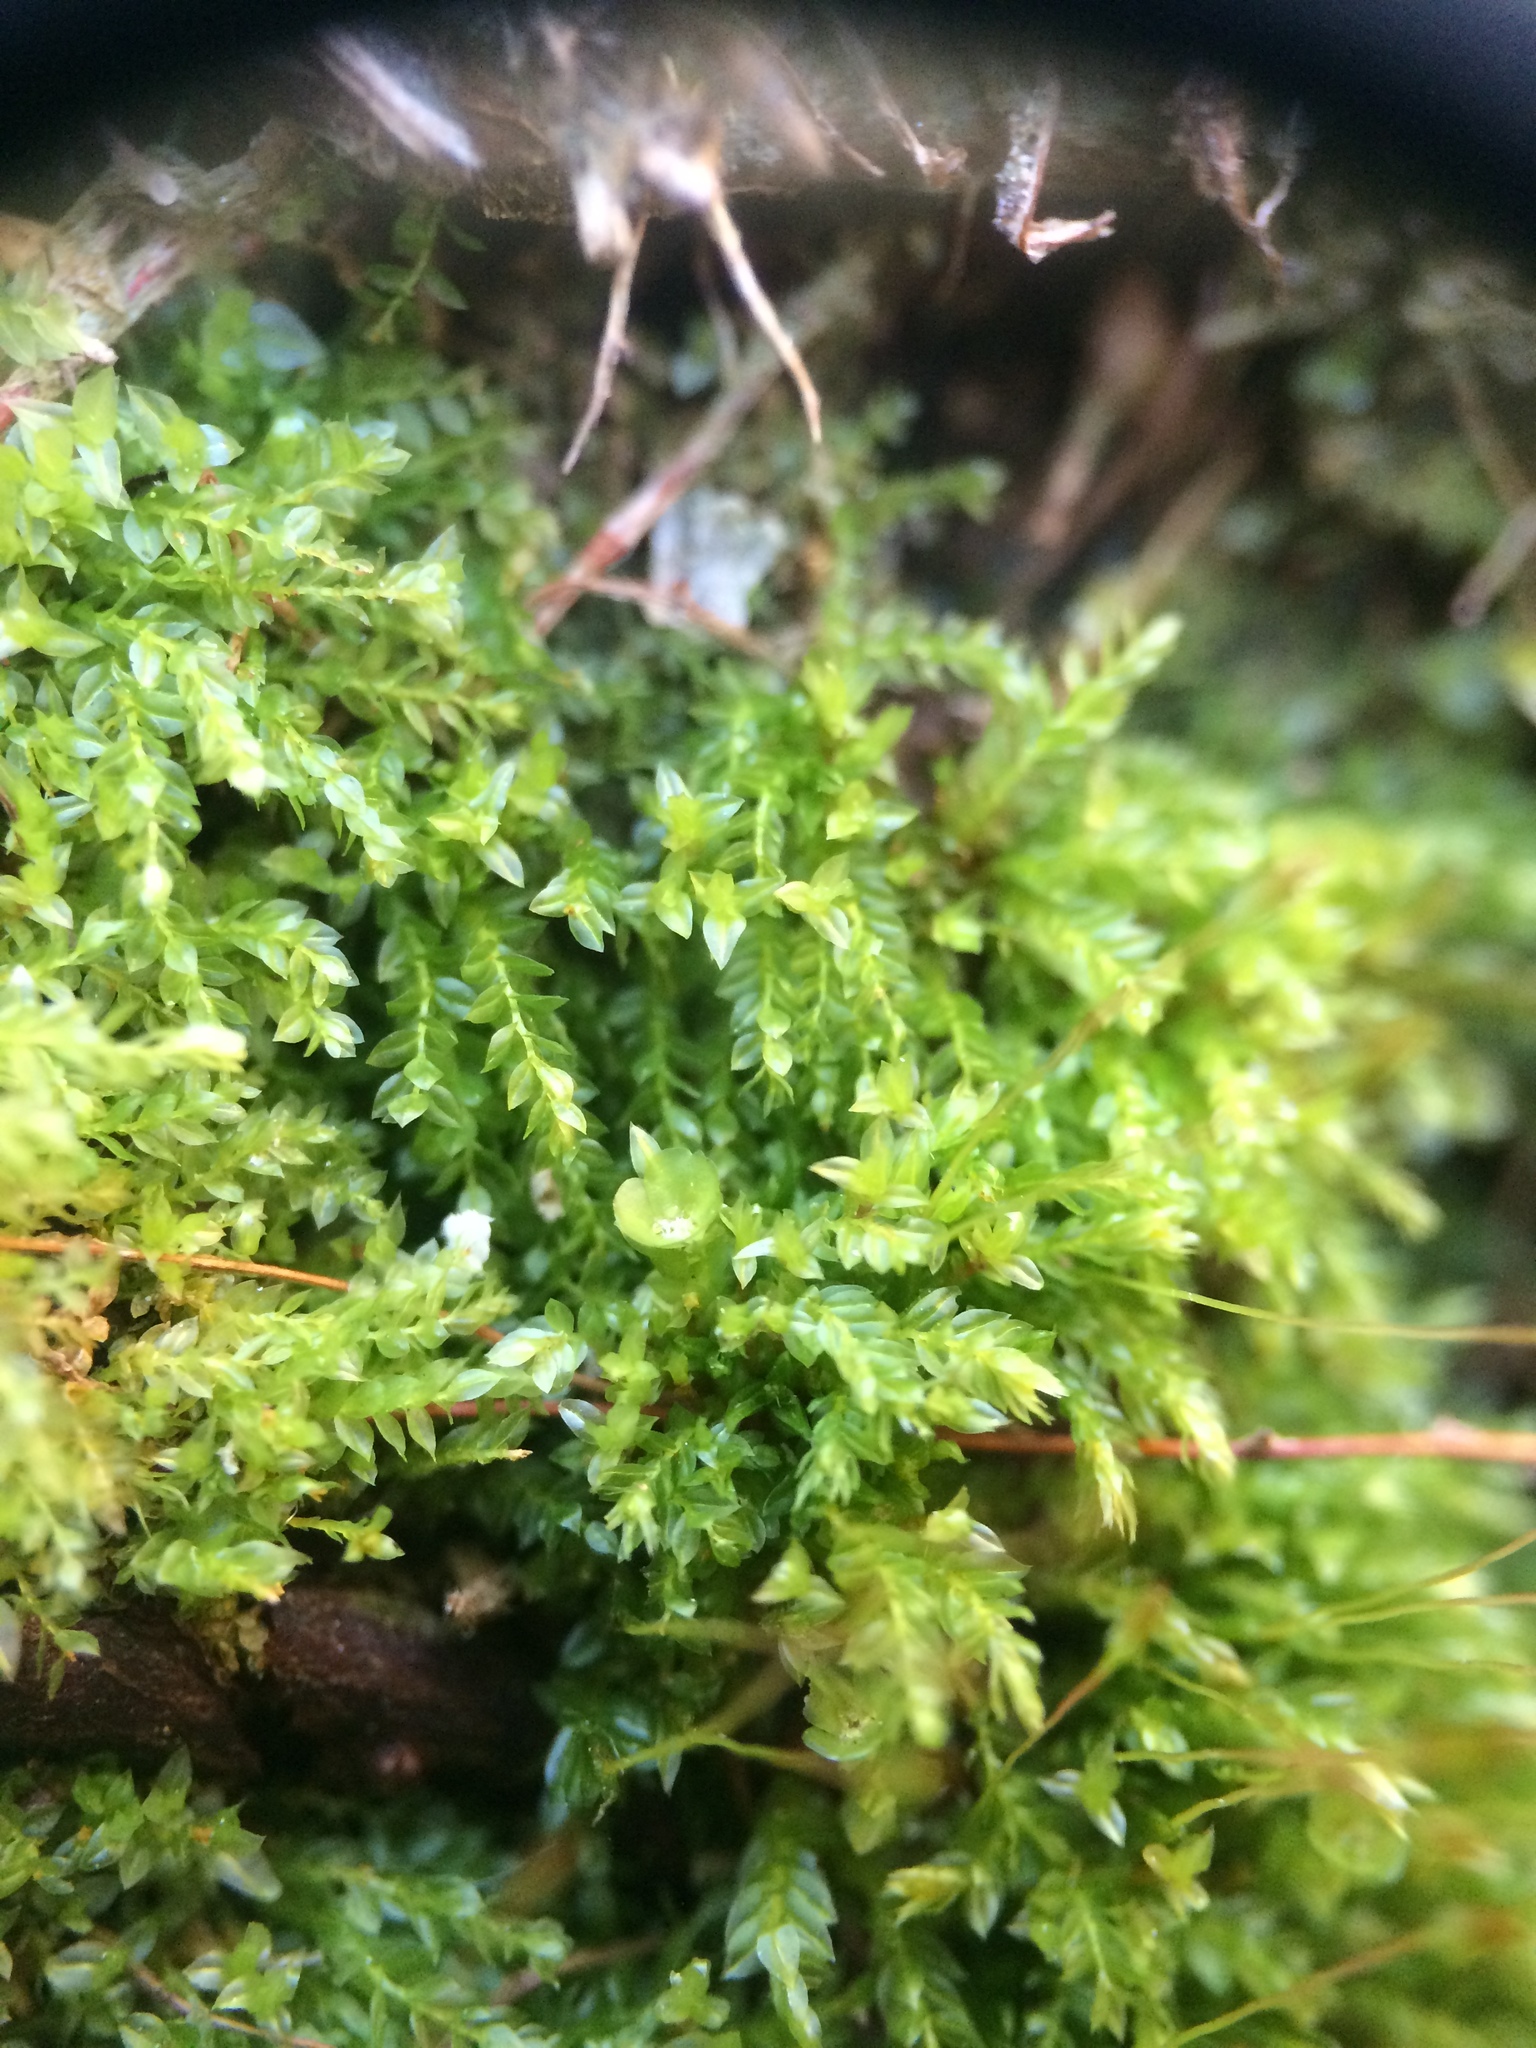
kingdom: Plantae
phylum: Bryophyta
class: Polytrichopsida
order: Tetraphidales
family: Tetraphidaceae
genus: Tetraphis
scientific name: Tetraphis pellucida
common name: Common four-toothed moss
